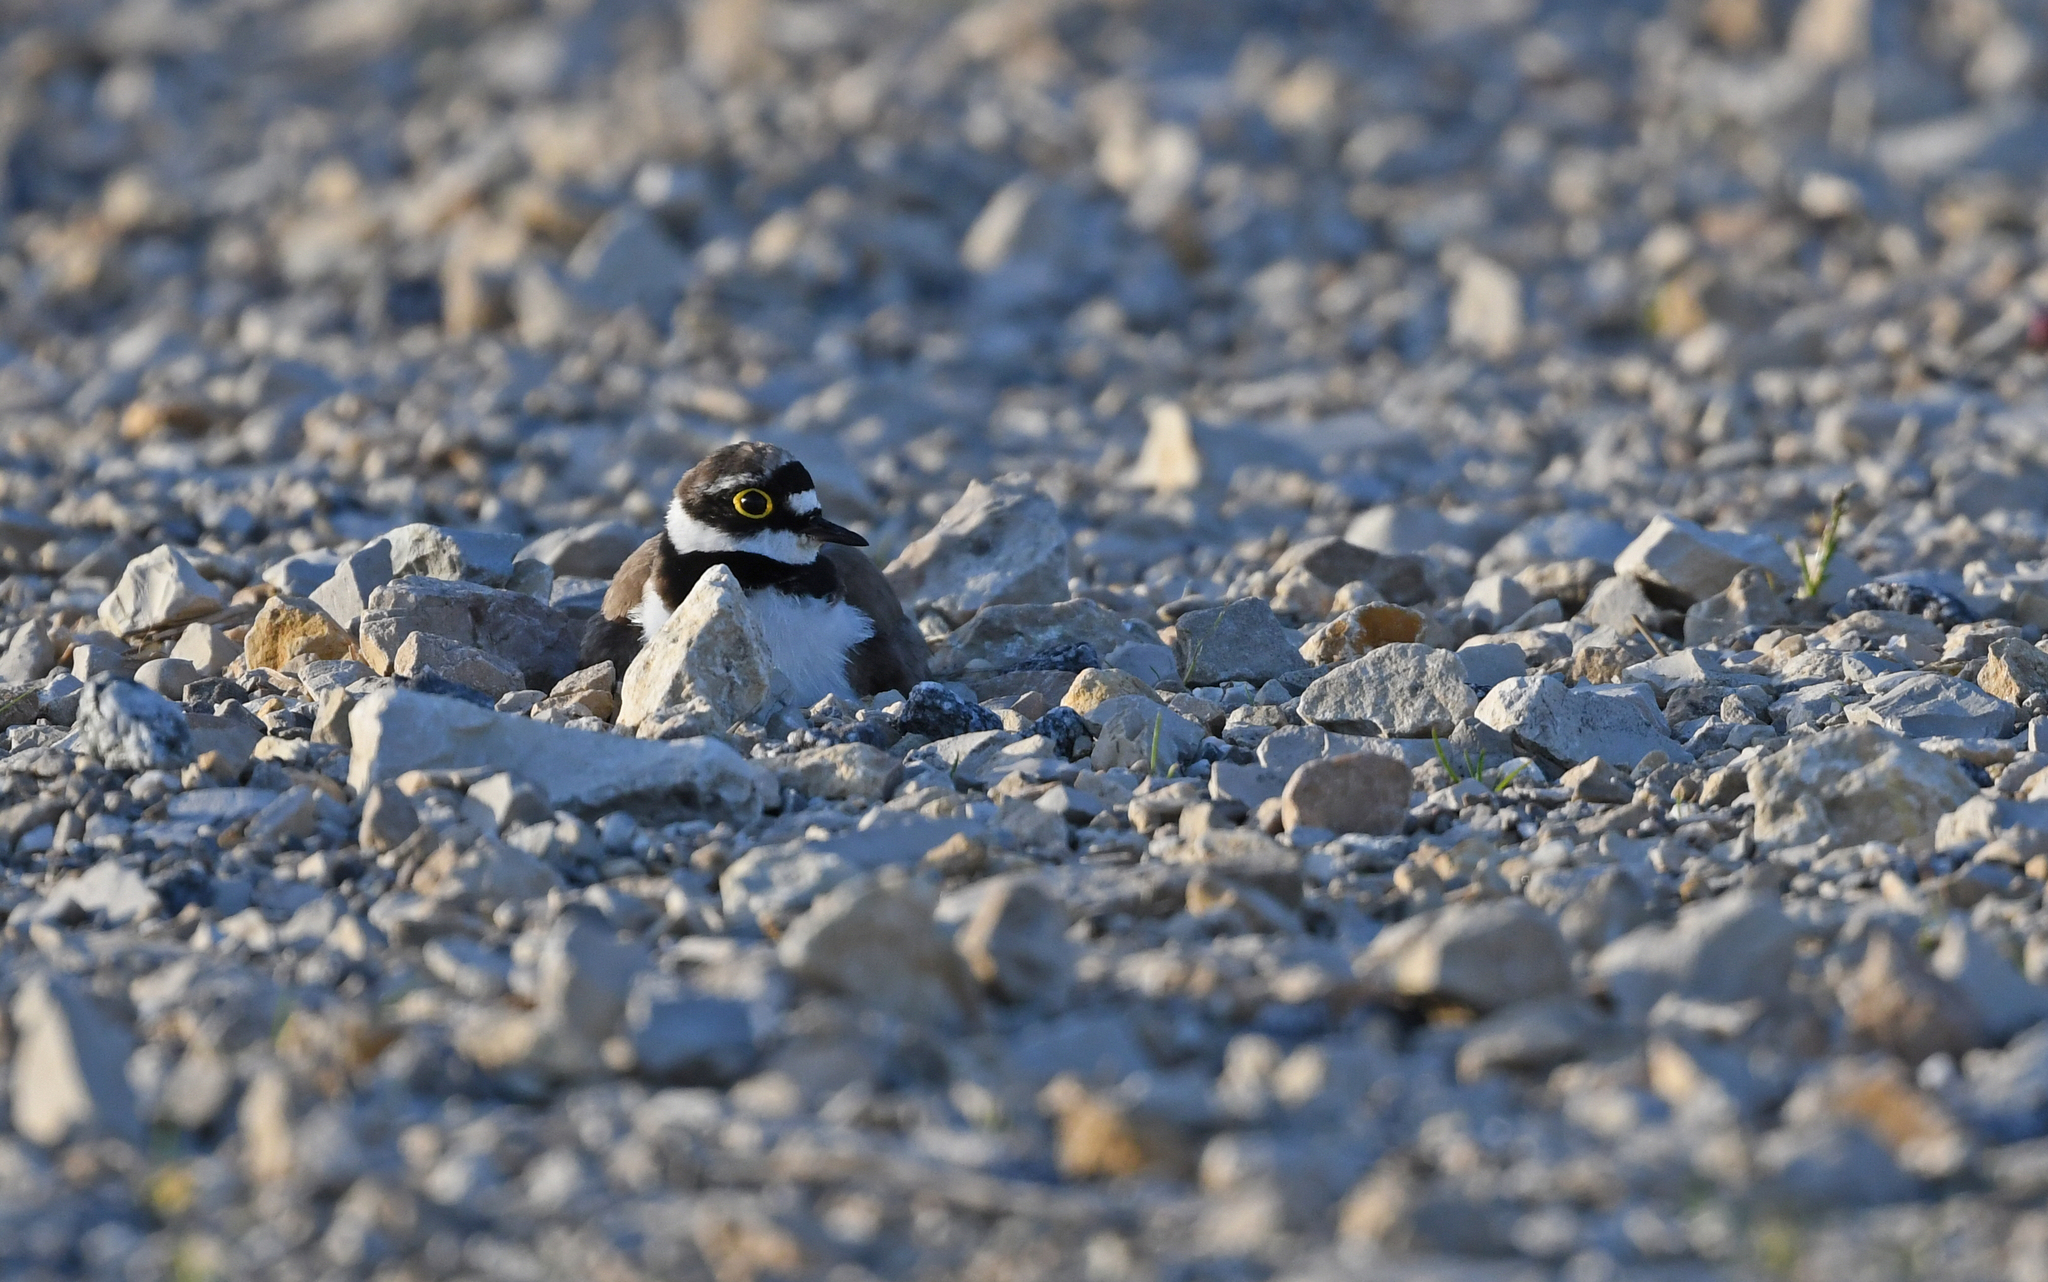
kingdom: Animalia
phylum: Chordata
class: Aves
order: Charadriiformes
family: Charadriidae
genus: Charadrius
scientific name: Charadrius dubius
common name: Little ringed plover
